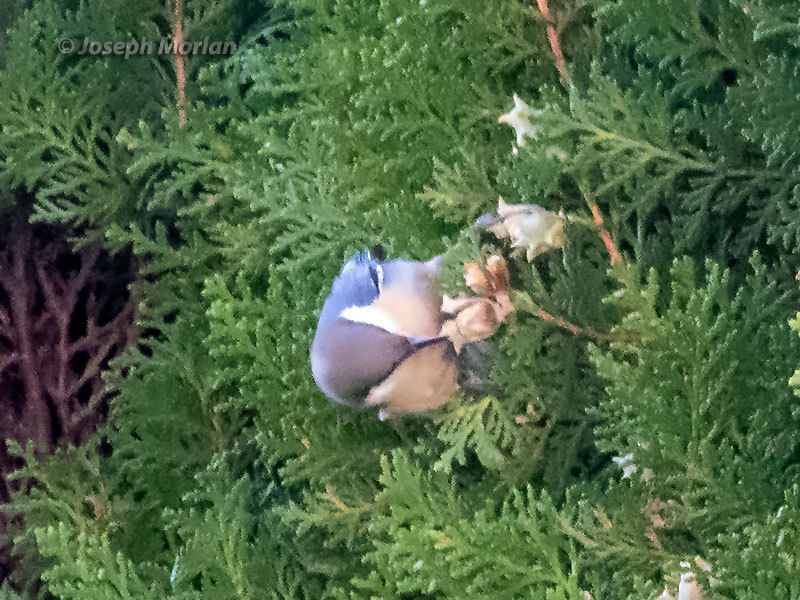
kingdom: Animalia
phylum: Chordata
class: Aves
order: Passeriformes
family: Sittidae
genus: Sitta
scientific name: Sitta pygmaea
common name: Pygmy nuthatch
